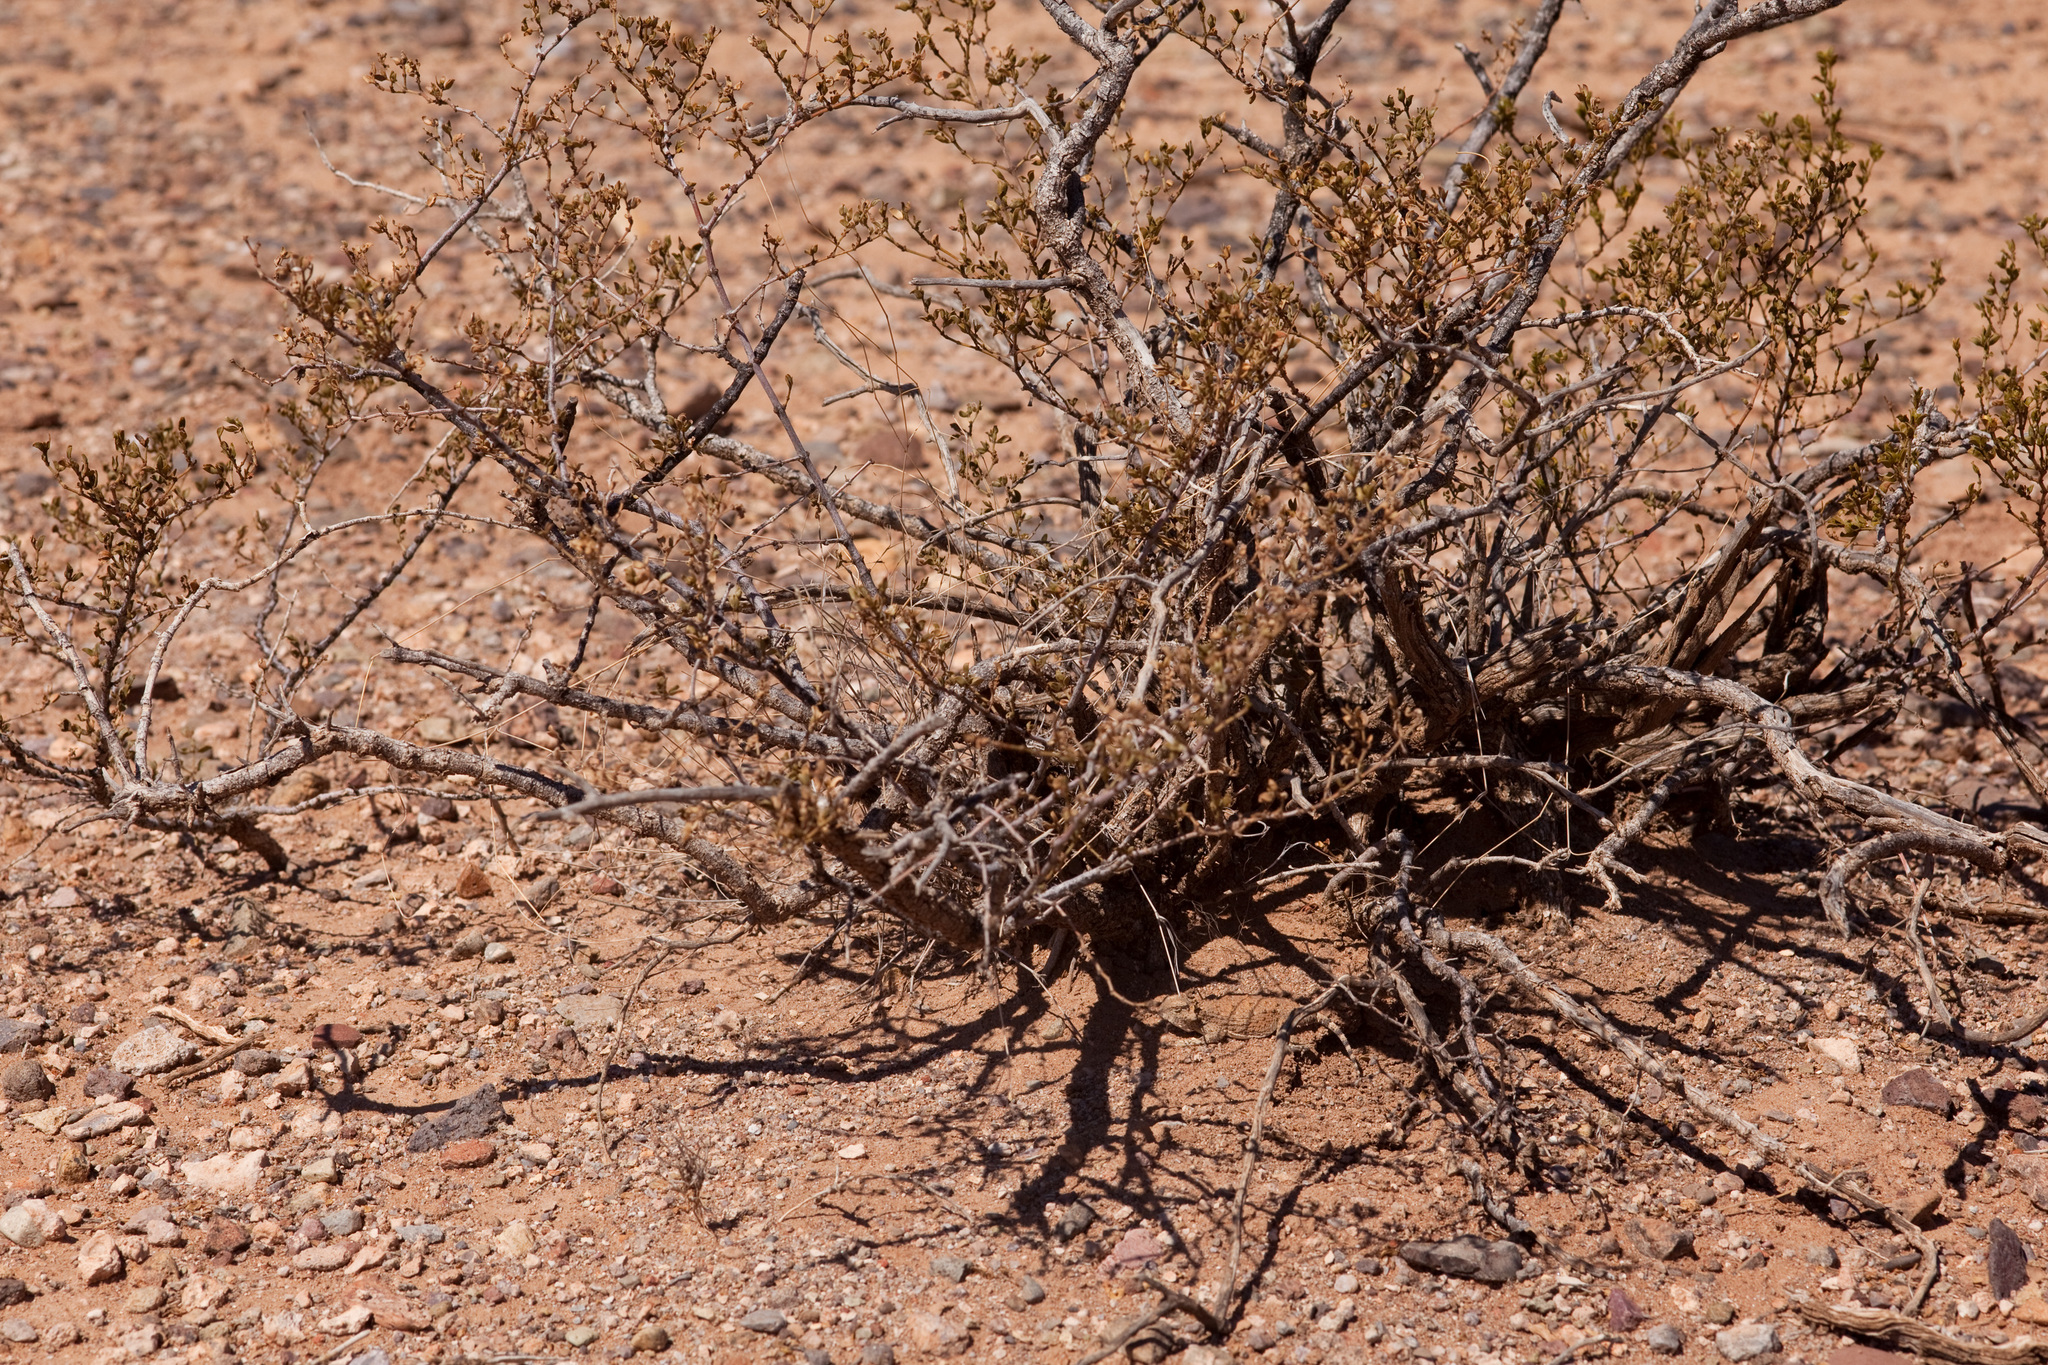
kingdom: Animalia
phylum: Chordata
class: Squamata
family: Phrynosomatidae
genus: Phrynosoma
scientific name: Phrynosoma modestum
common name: Roundtail horned lizard
